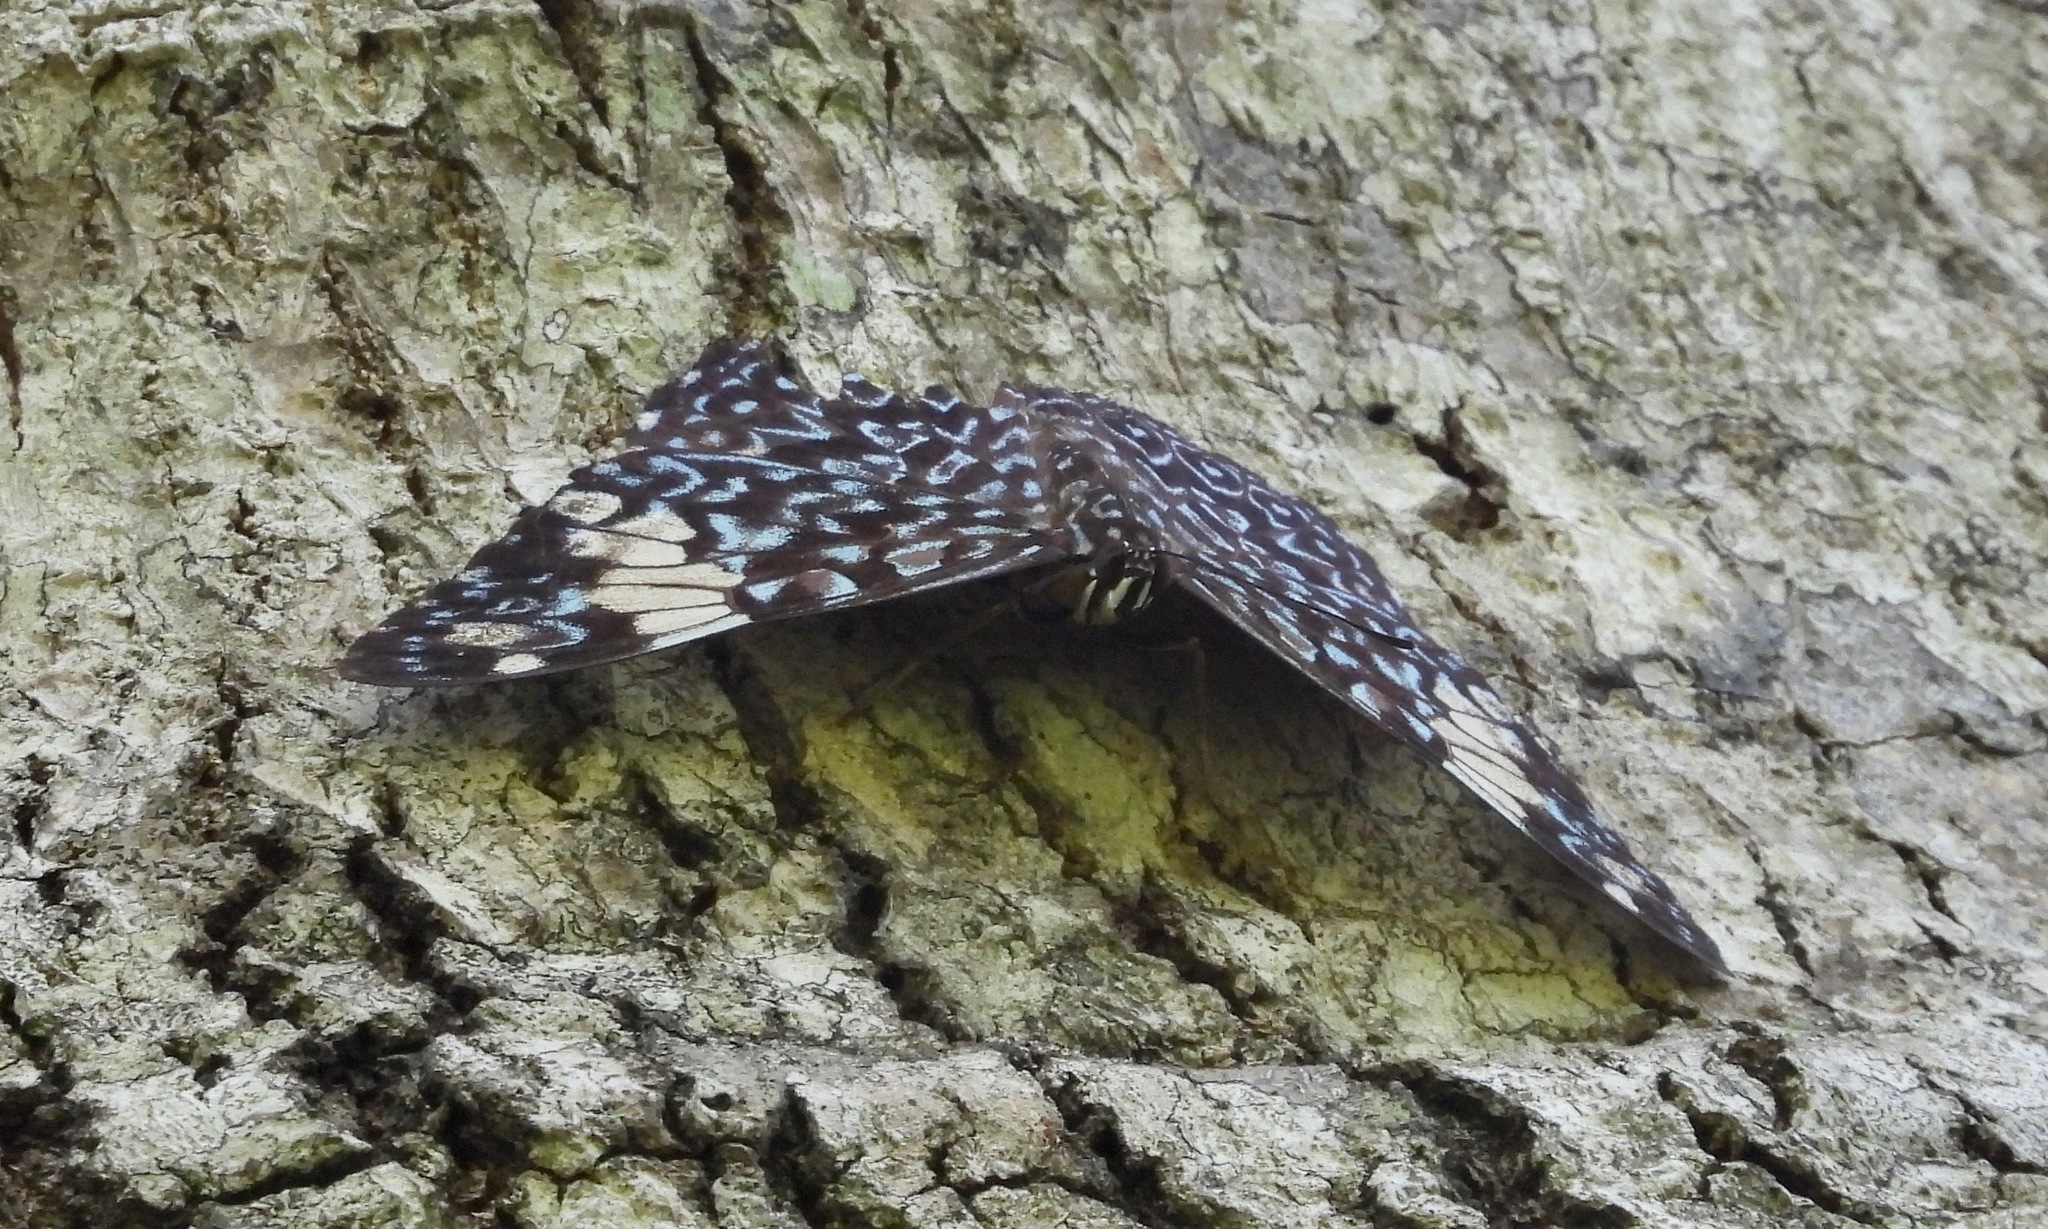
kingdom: Animalia
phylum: Arthropoda
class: Insecta
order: Lepidoptera
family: Nymphalidae
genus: Hamadryas
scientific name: Hamadryas amphinome
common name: Red cracker
